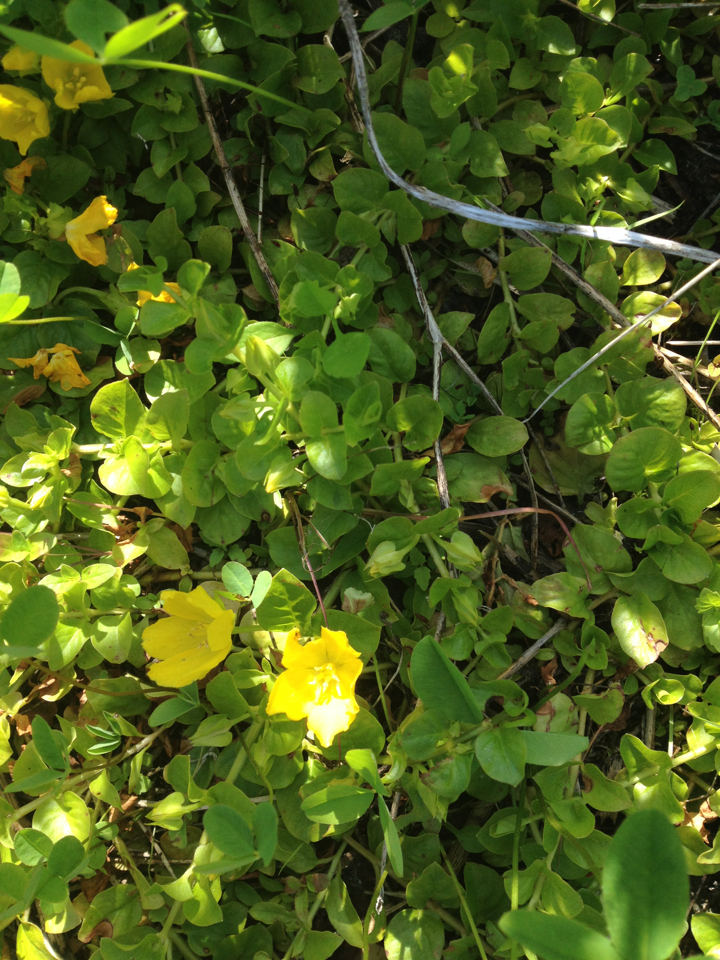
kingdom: Plantae
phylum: Tracheophyta
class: Magnoliopsida
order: Ericales
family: Primulaceae
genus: Lysimachia
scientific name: Lysimachia nummularia
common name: Moneywort
